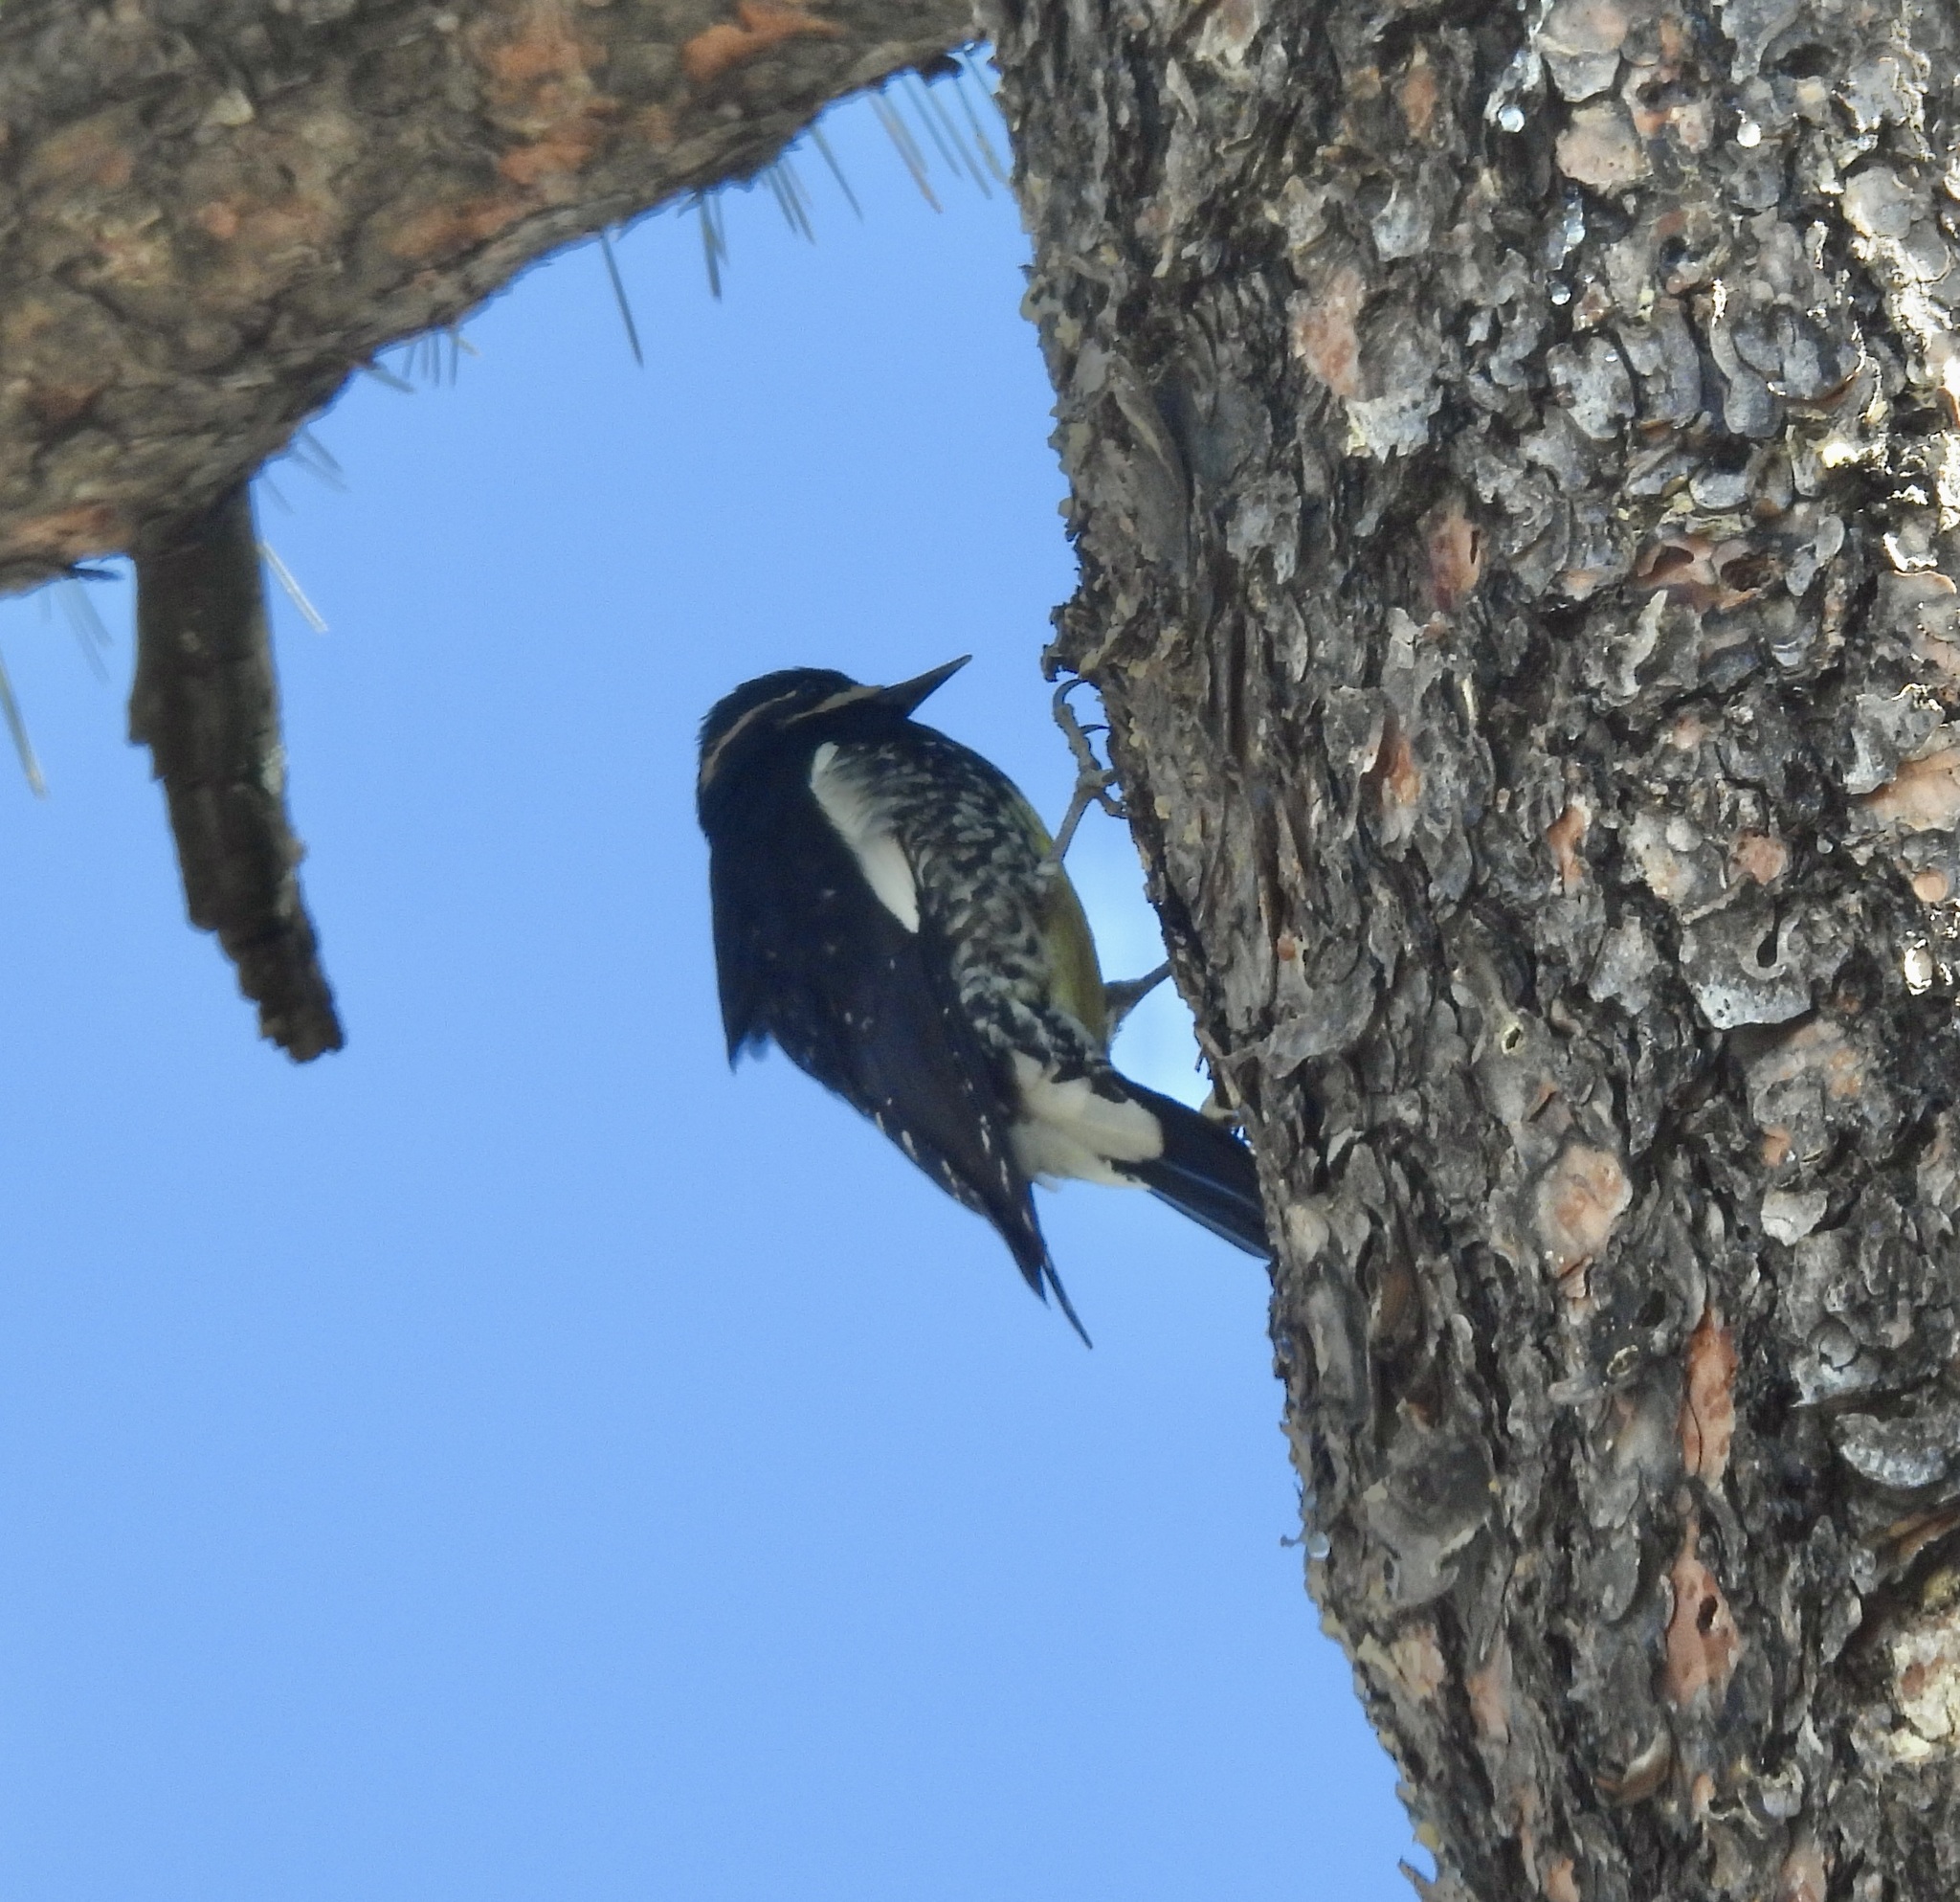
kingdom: Animalia
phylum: Chordata
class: Aves
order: Piciformes
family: Picidae
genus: Sphyrapicus
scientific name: Sphyrapicus thyroideus
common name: Williamson's sapsucker
